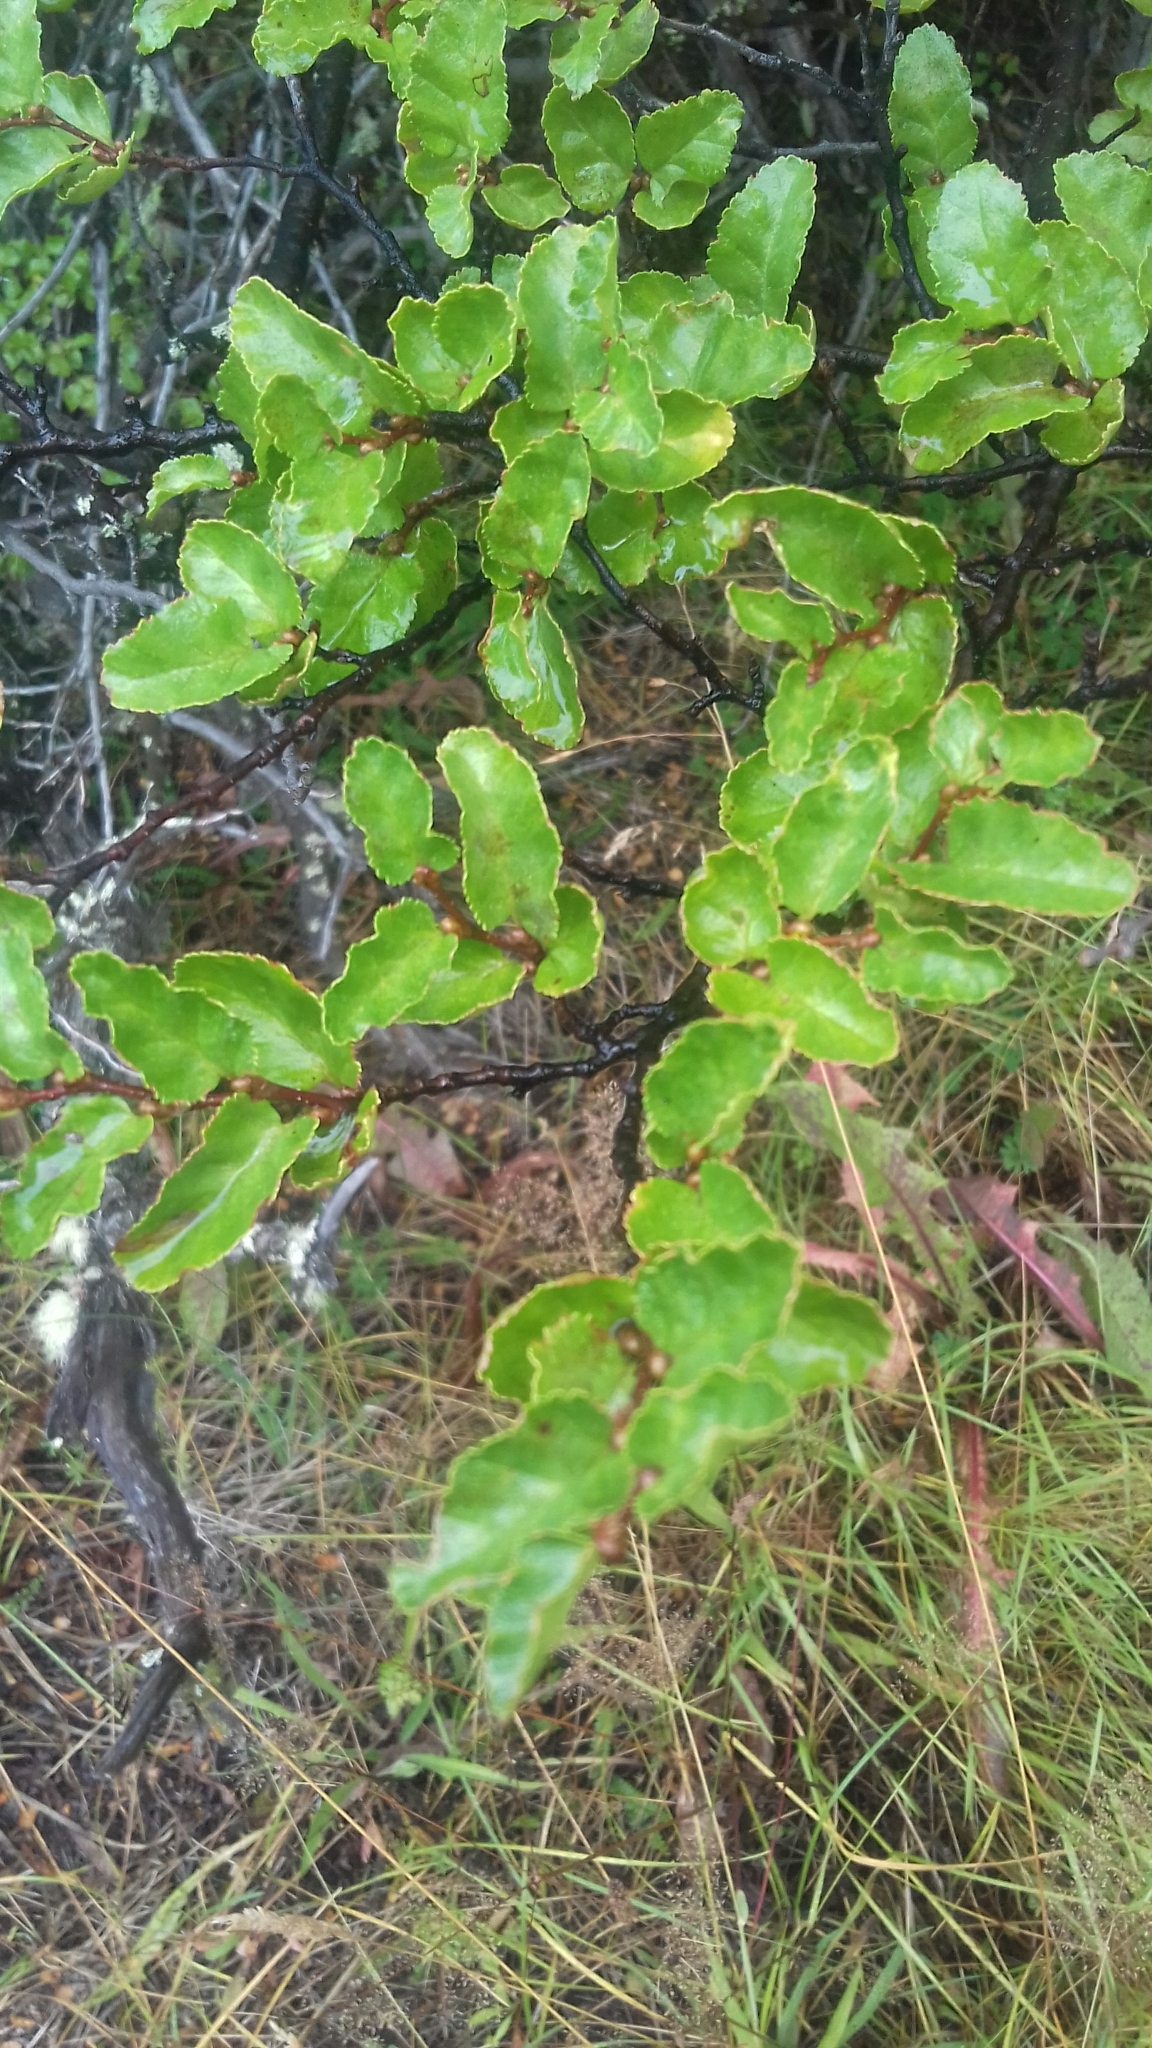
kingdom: Plantae
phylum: Tracheophyta
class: Magnoliopsida
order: Fagales
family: Nothofagaceae
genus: Nothofagus
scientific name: Nothofagus antarctica
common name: Antarctic beech
